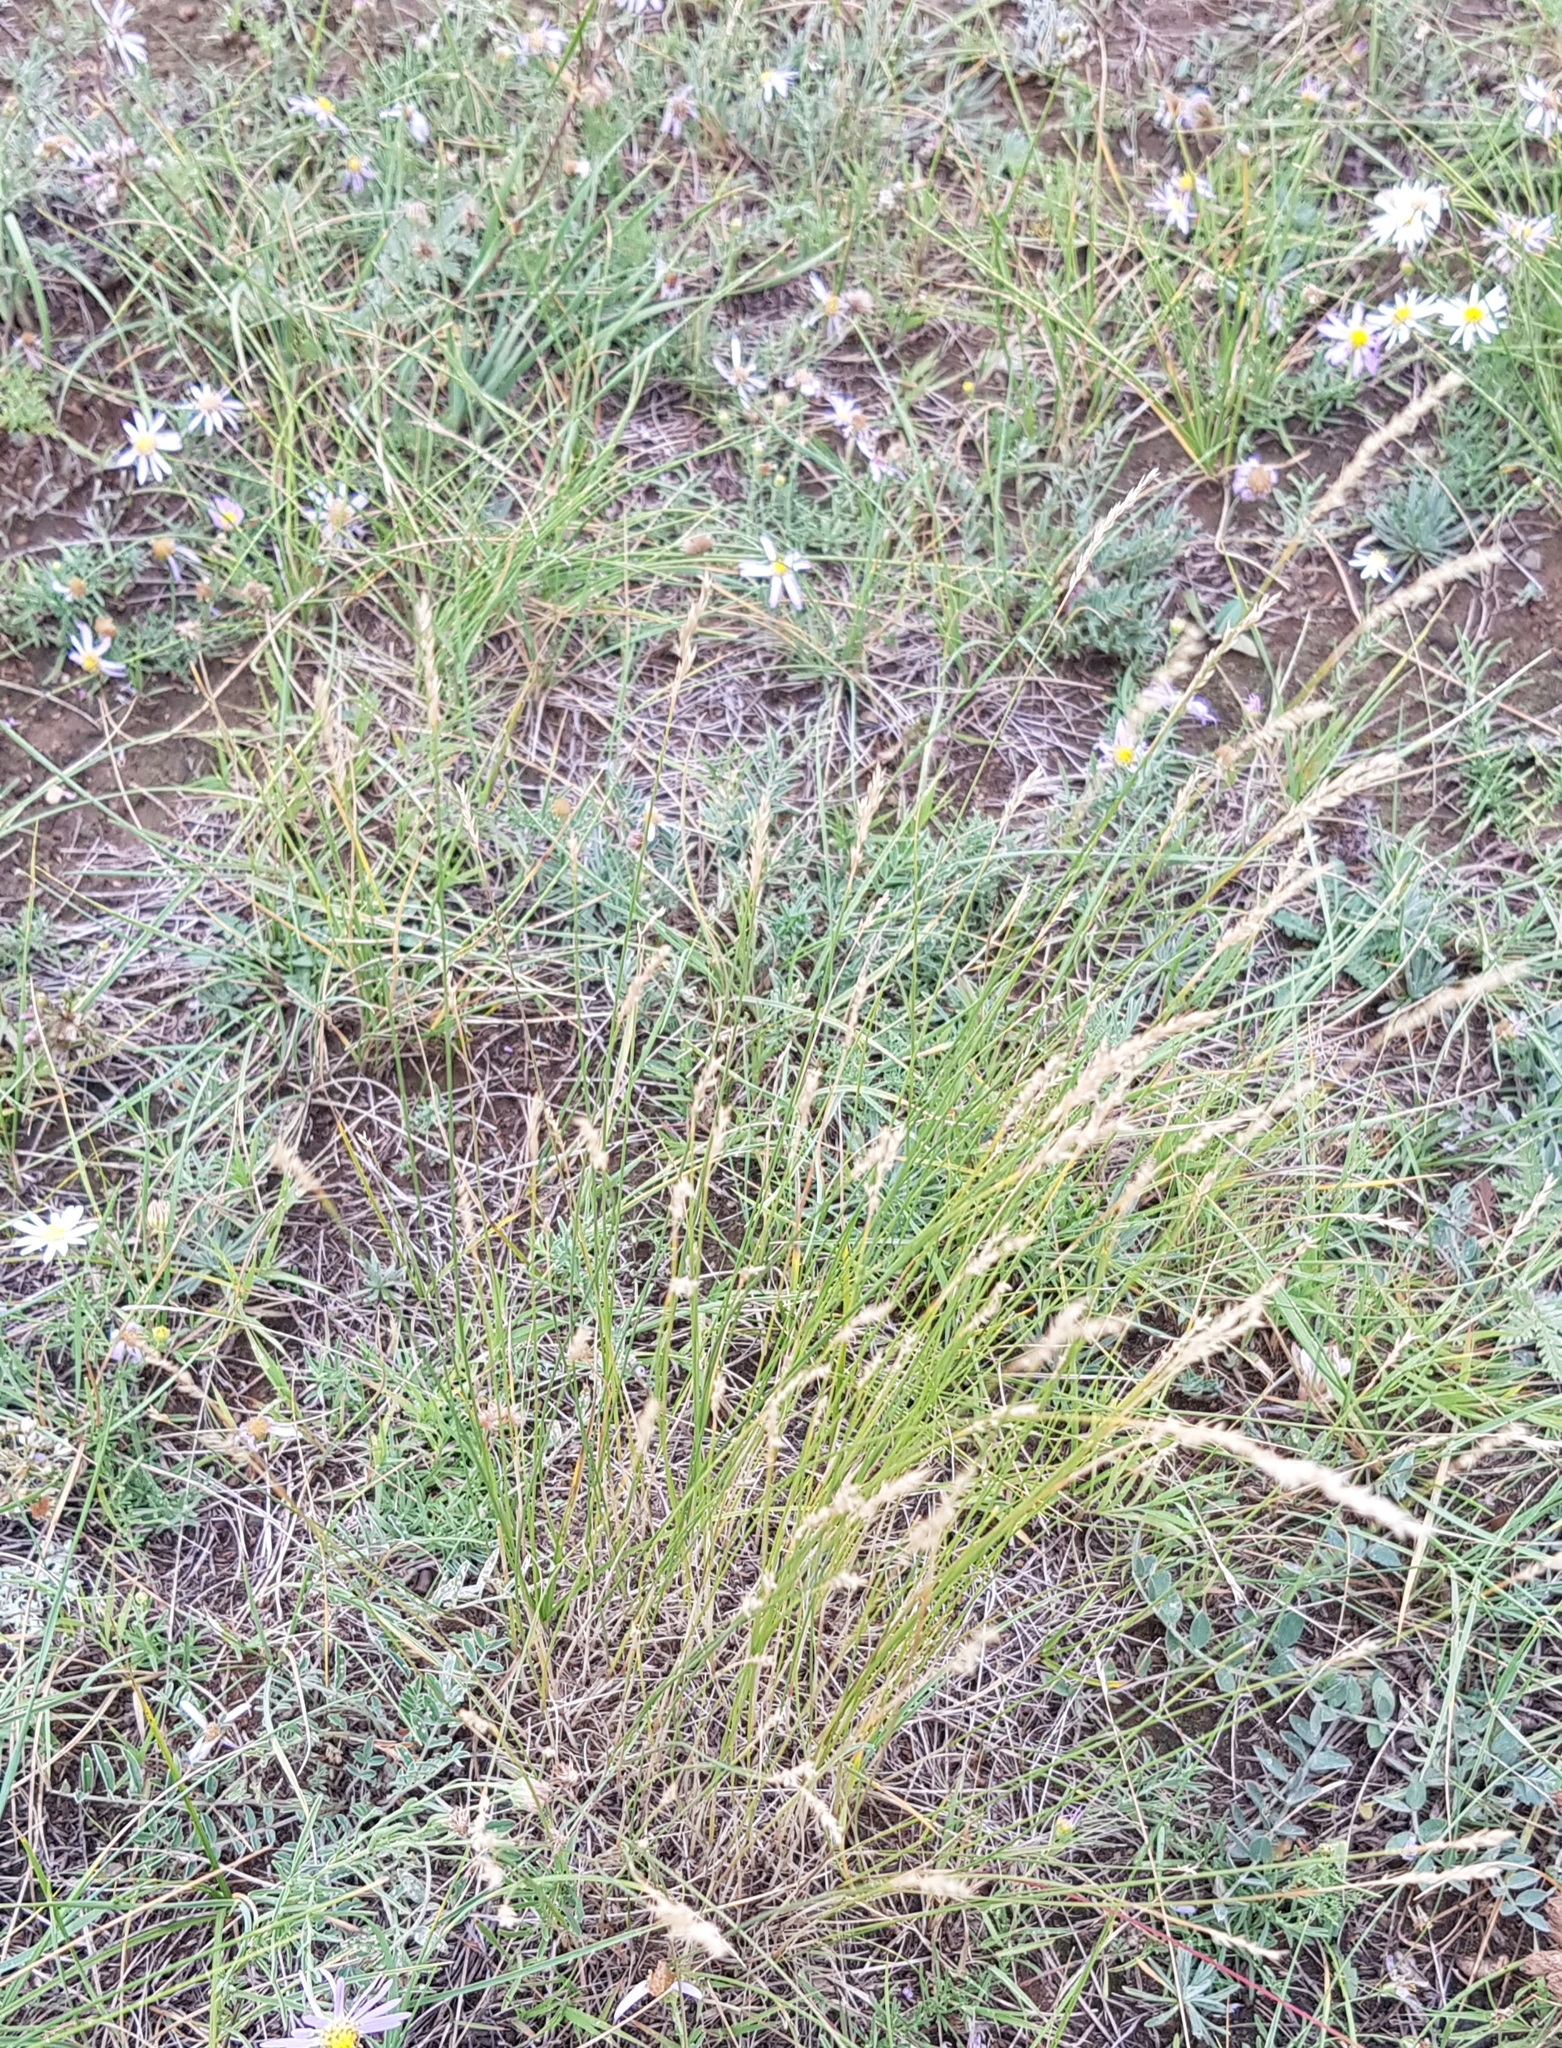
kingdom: Plantae
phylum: Tracheophyta
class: Liliopsida
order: Poales
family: Poaceae
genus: Festuca
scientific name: Festuca lenensis
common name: Lena river fescue
